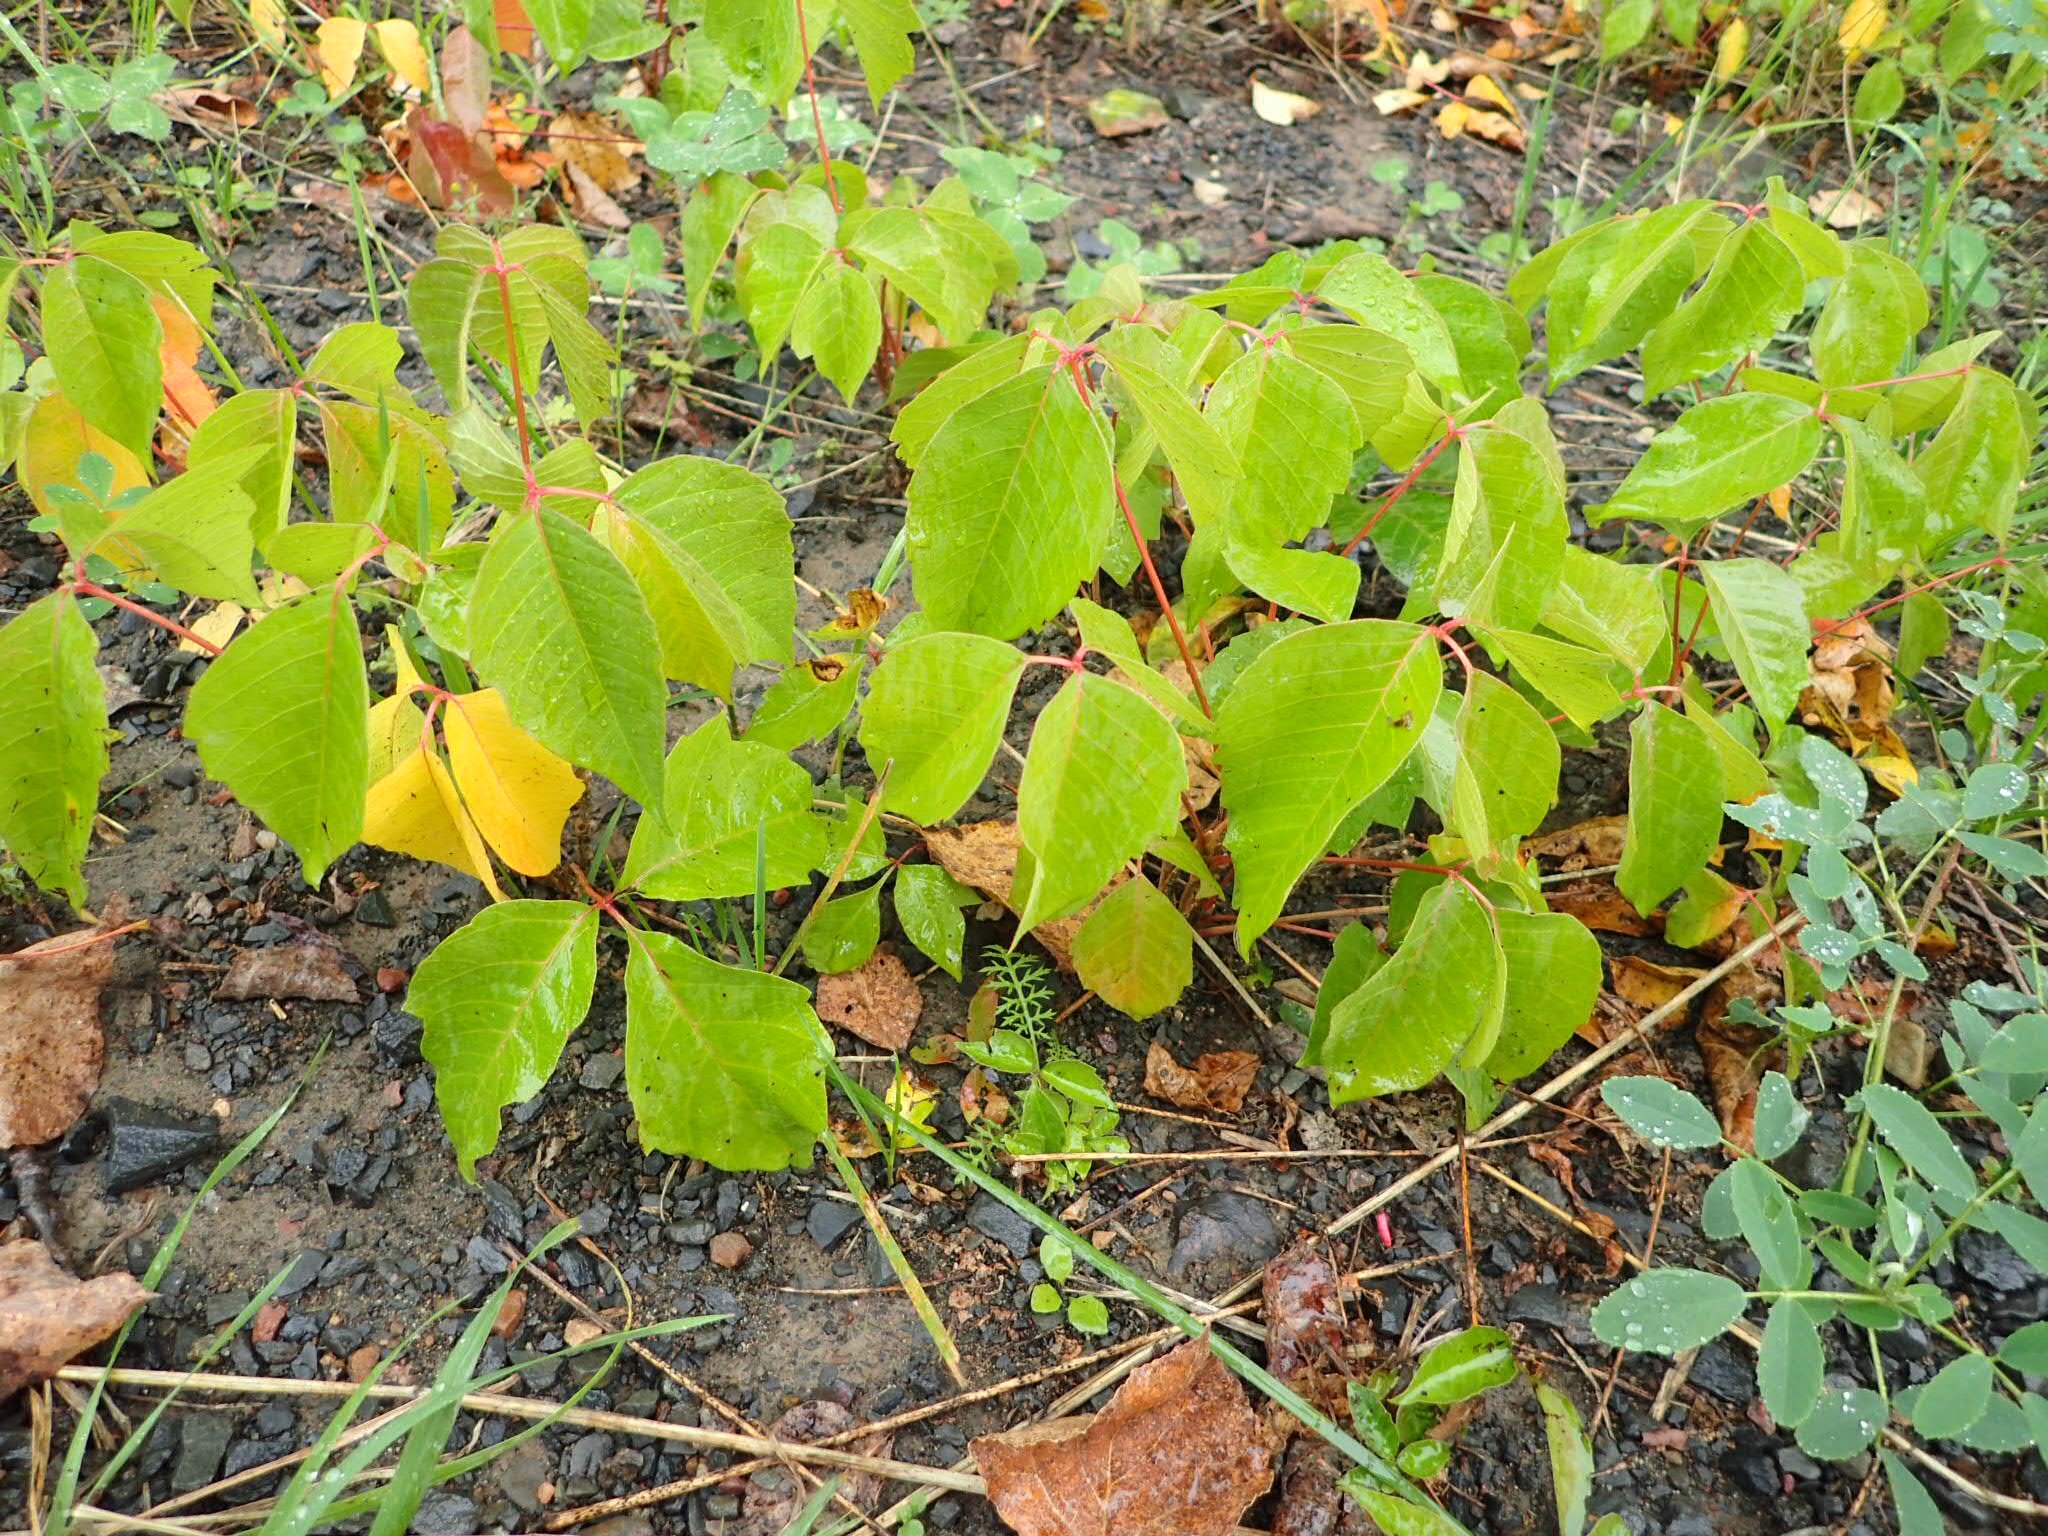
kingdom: Plantae
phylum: Tracheophyta
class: Magnoliopsida
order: Sapindales
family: Anacardiaceae
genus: Toxicodendron
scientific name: Toxicodendron rydbergii
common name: Rydberg's poison-ivy
